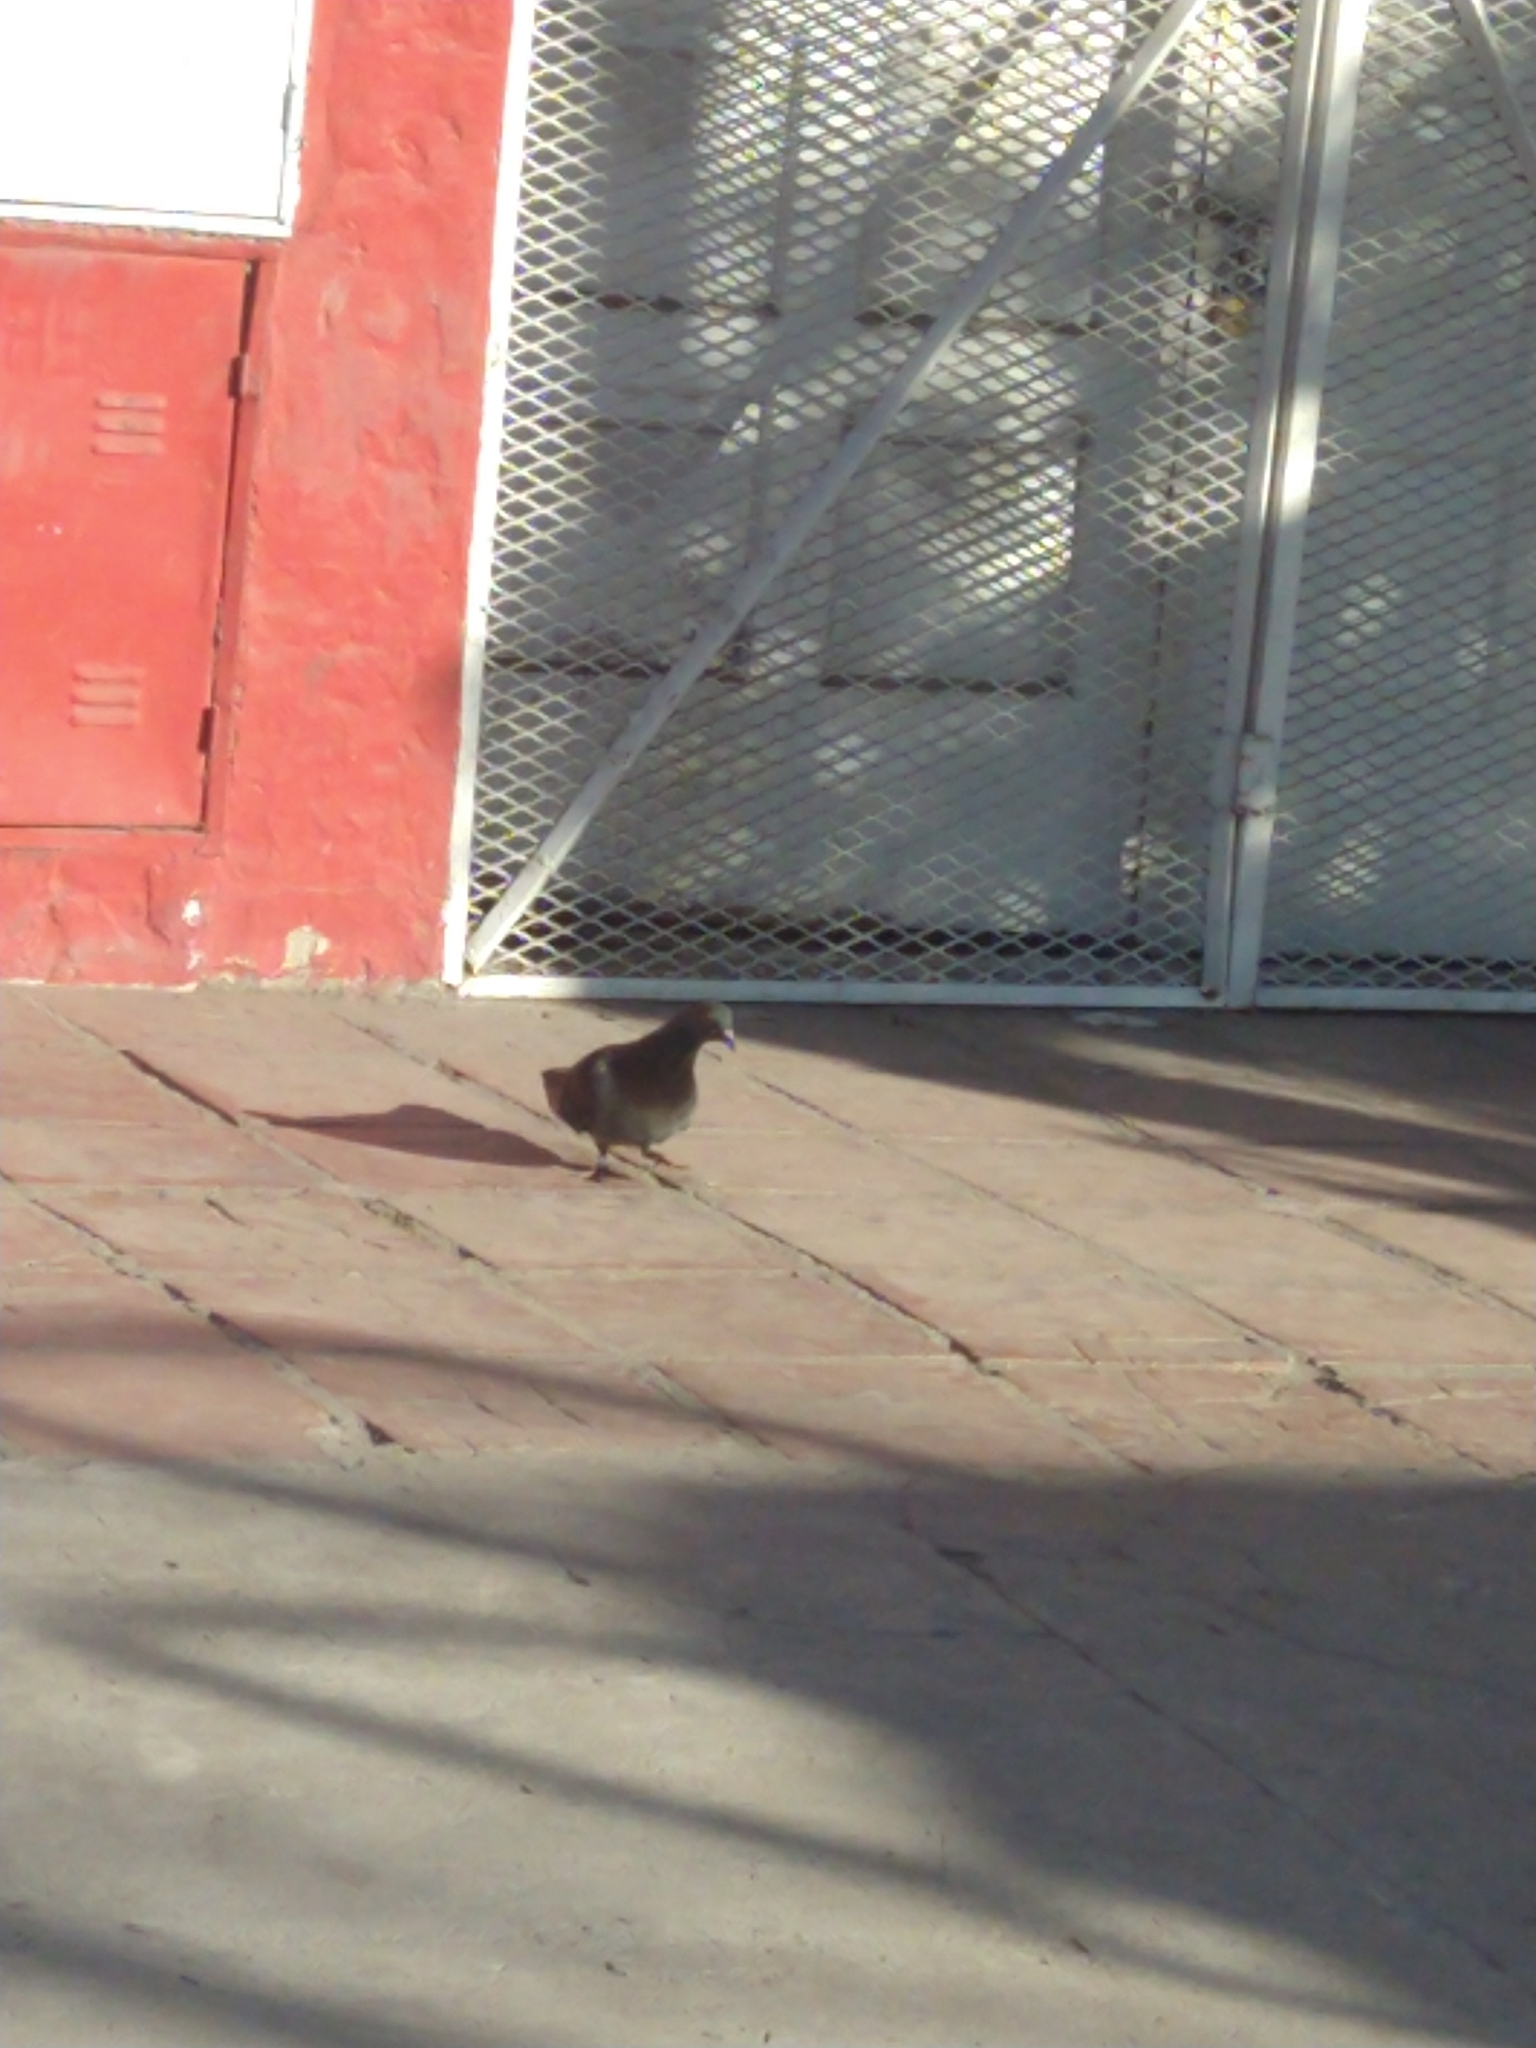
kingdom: Animalia
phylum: Chordata
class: Aves
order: Columbiformes
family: Columbidae
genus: Columba
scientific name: Columba livia
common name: Rock pigeon
